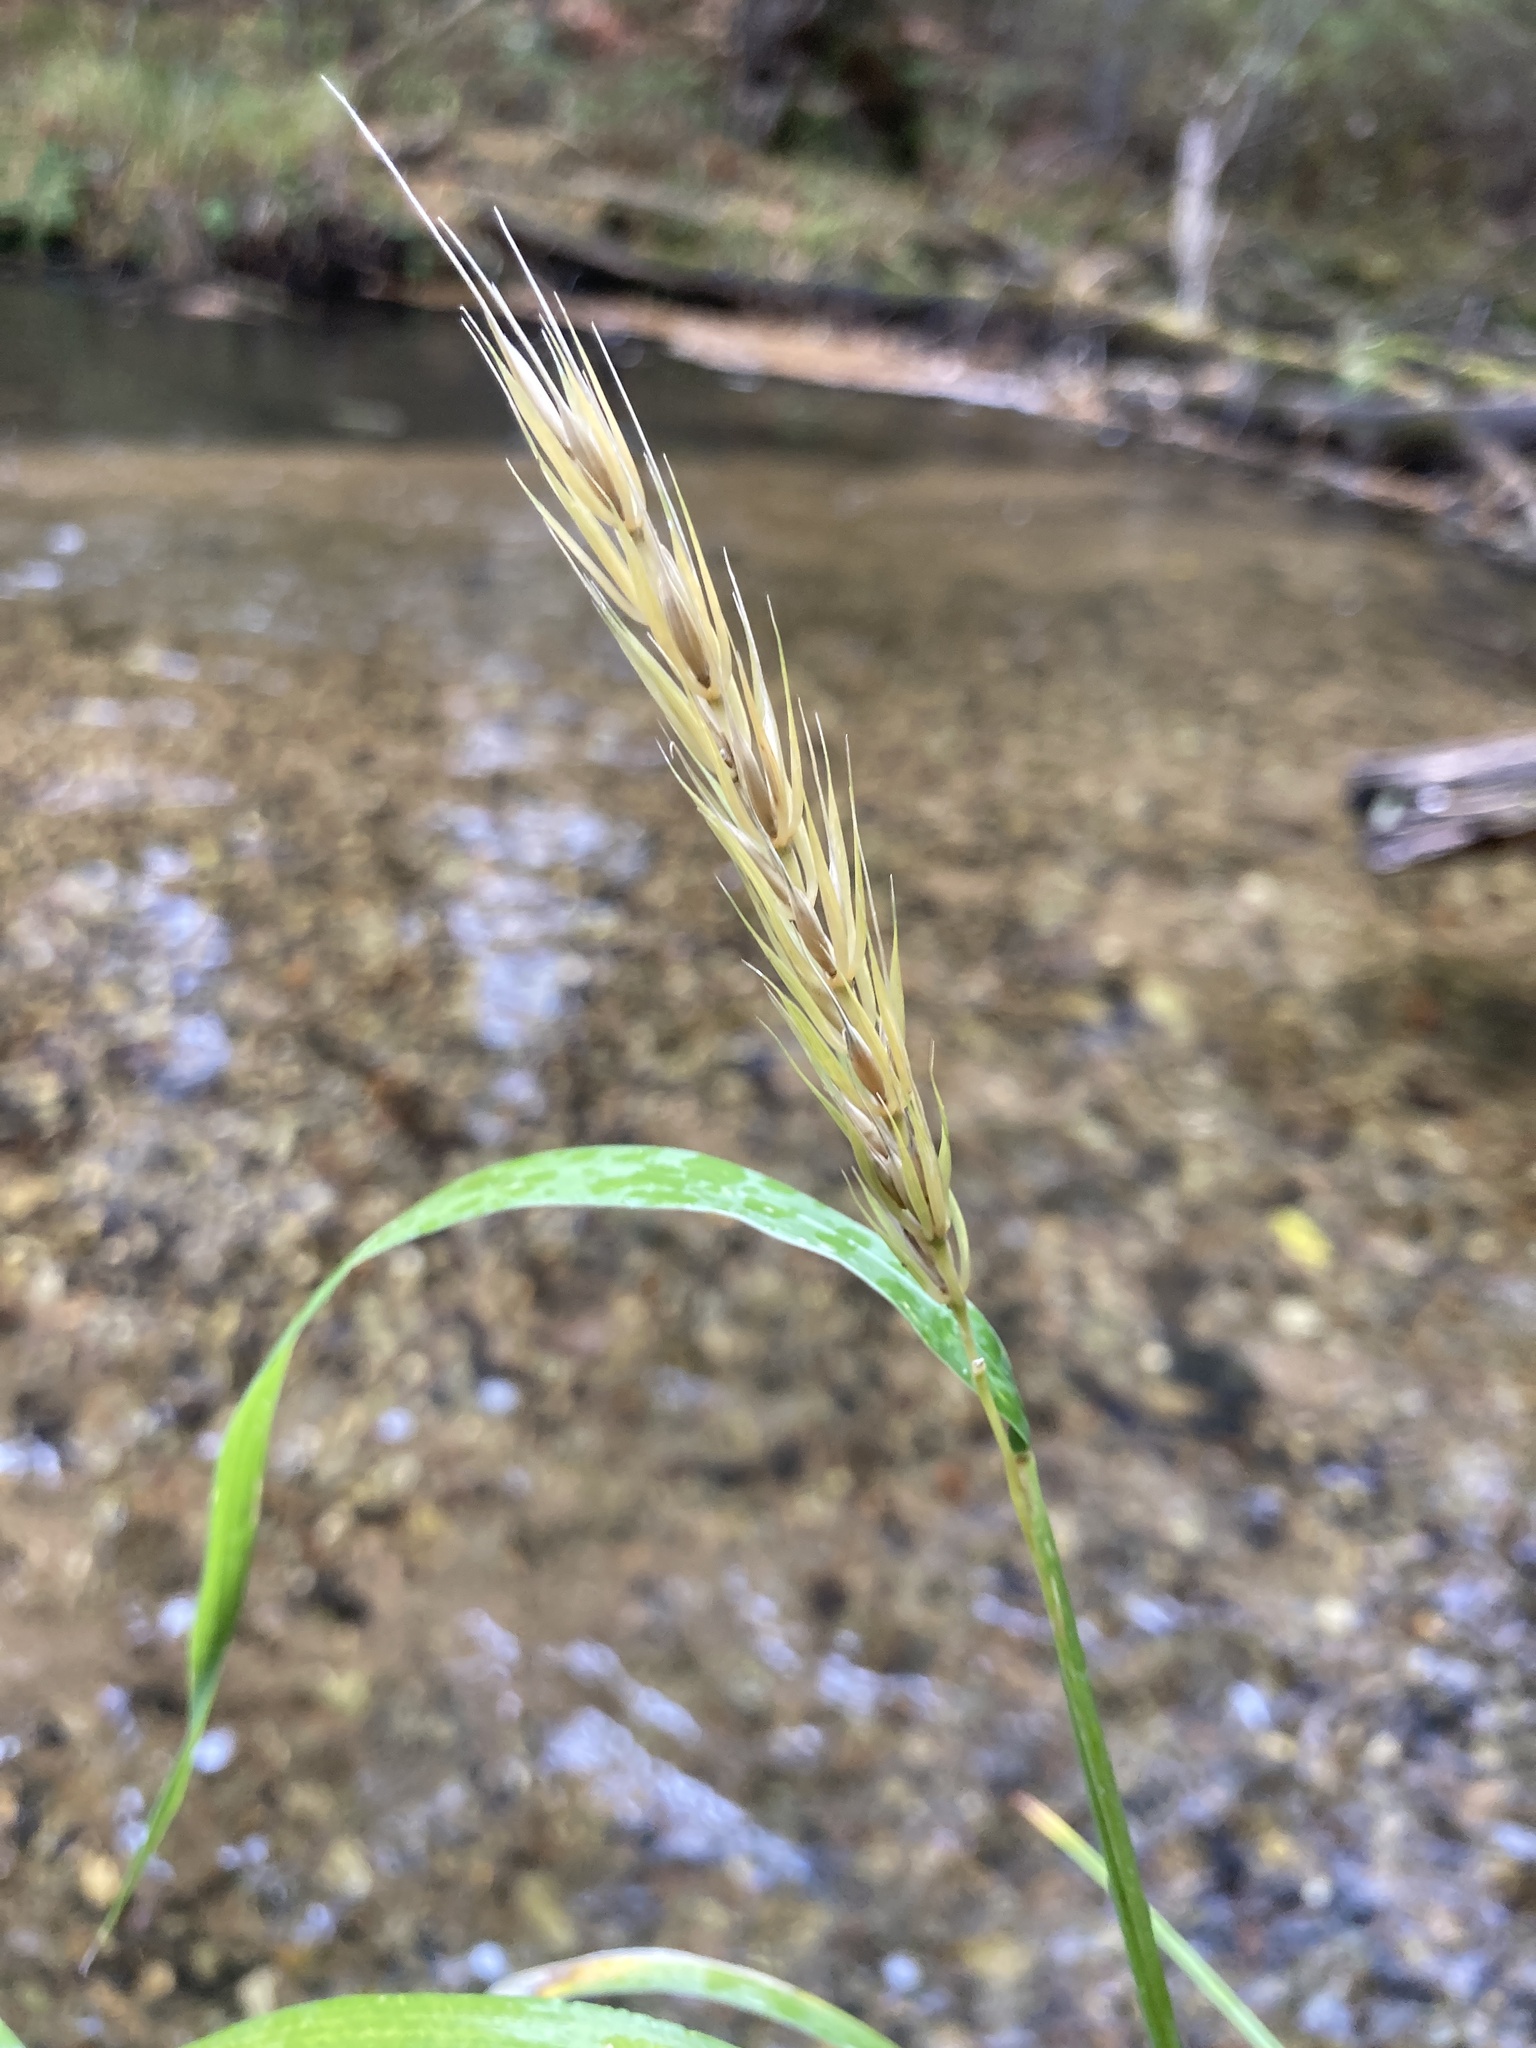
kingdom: Plantae
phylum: Tracheophyta
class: Liliopsida
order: Poales
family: Poaceae
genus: Elymus
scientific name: Elymus virginicus
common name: Common eastern wildrye
